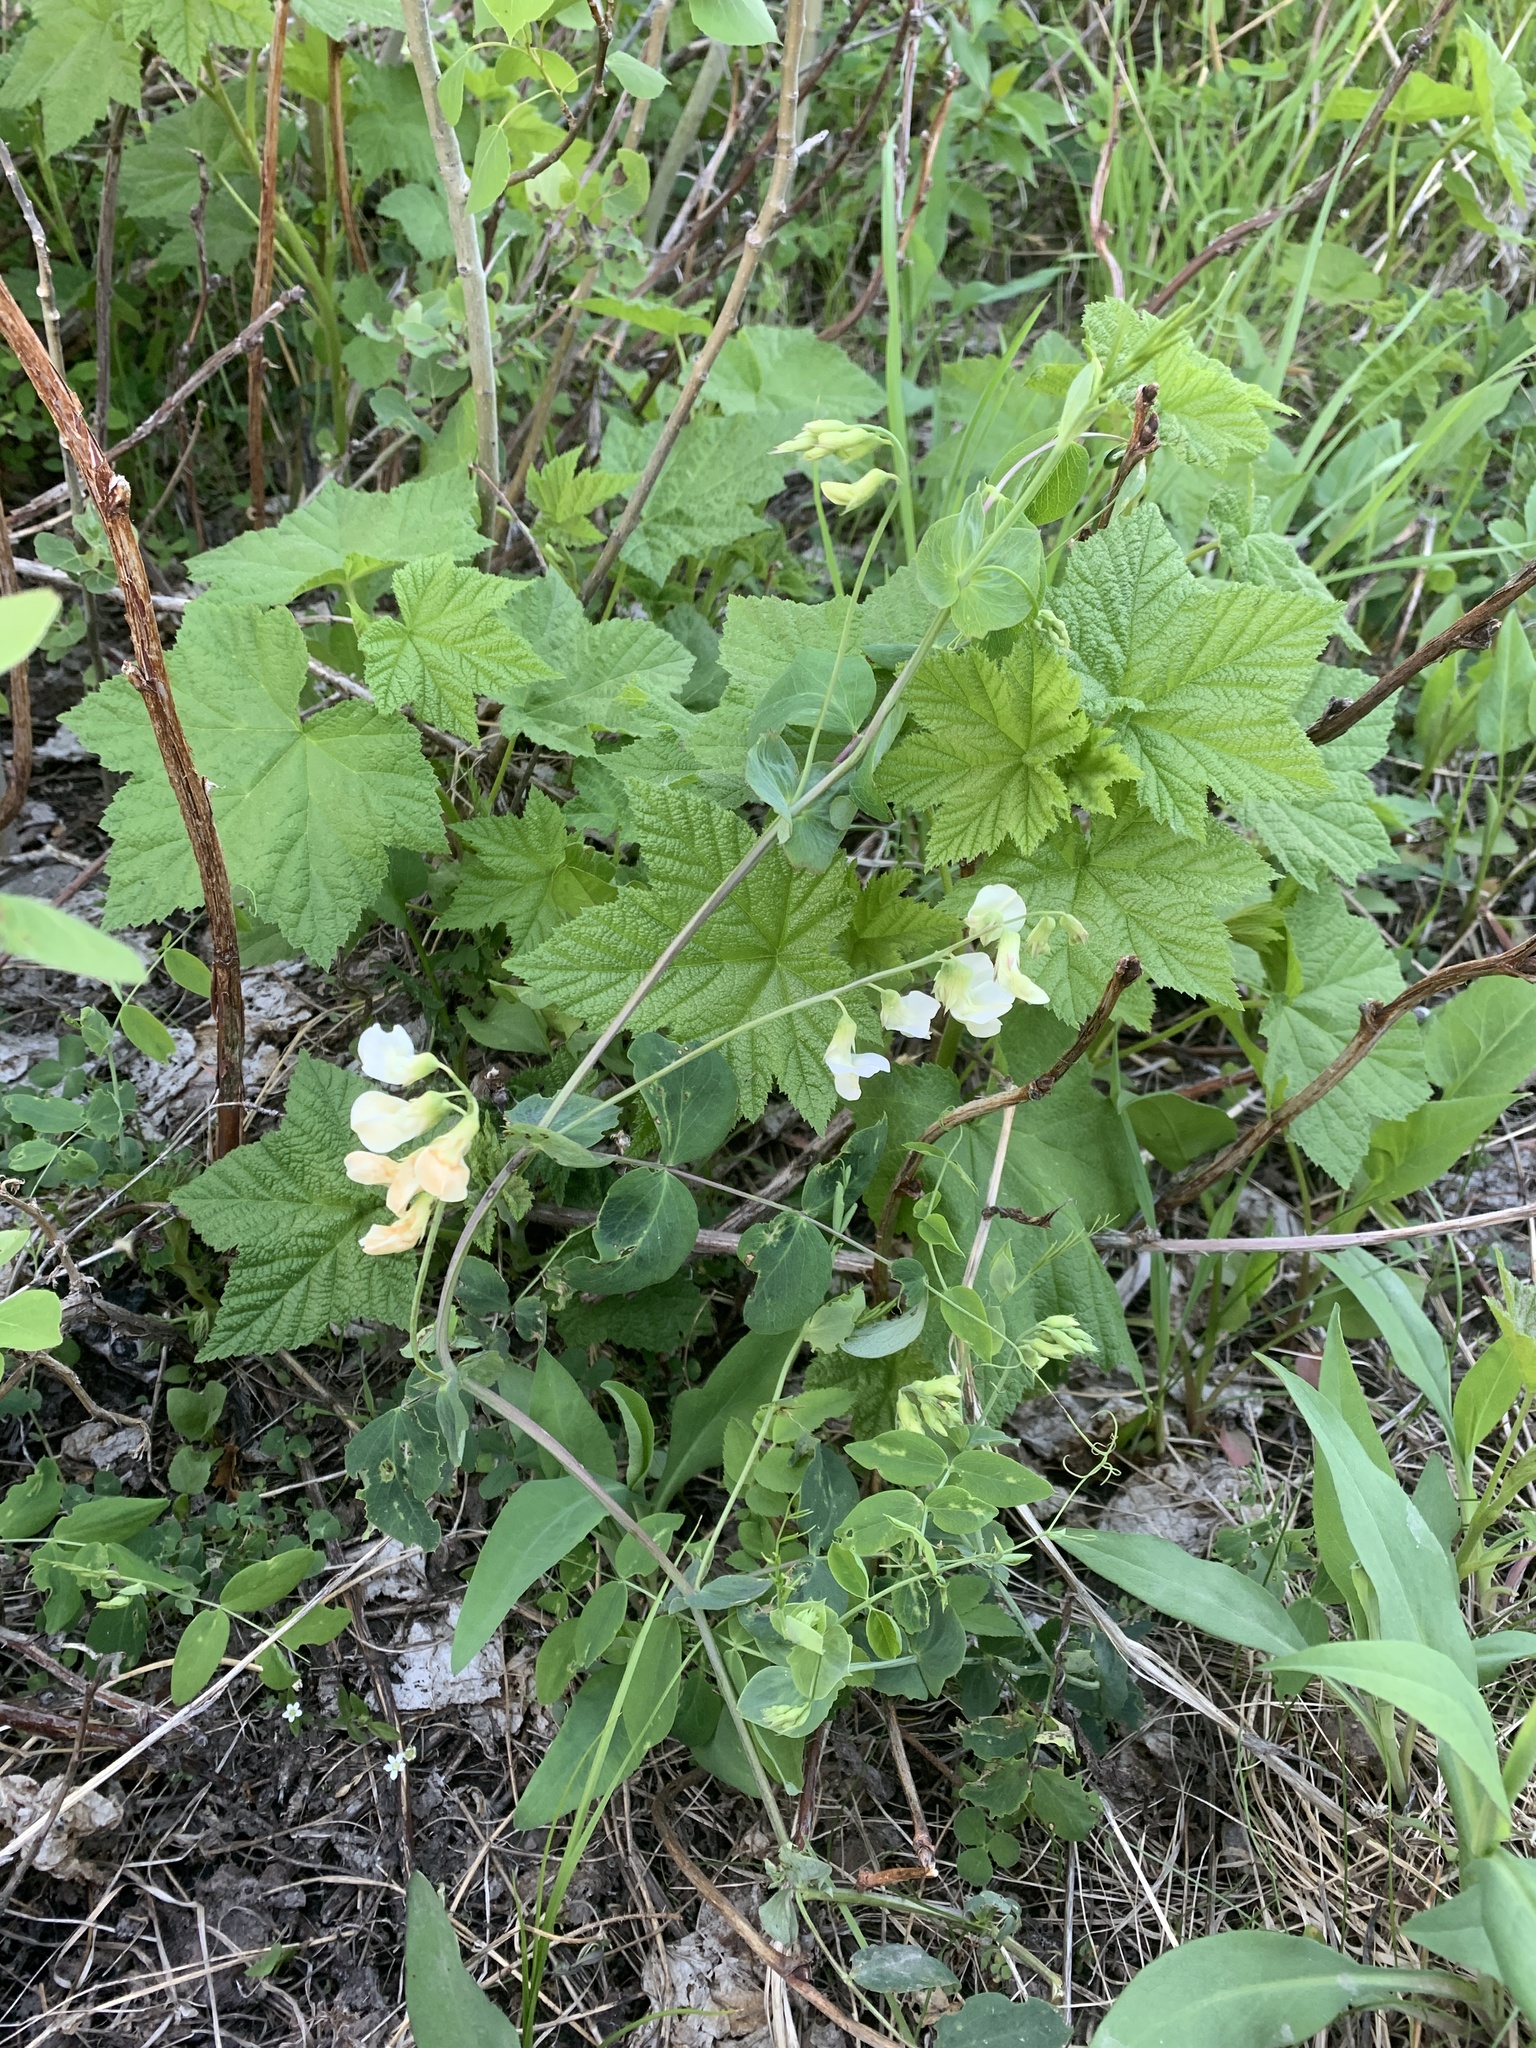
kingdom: Plantae
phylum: Tracheophyta
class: Magnoliopsida
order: Fabales
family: Fabaceae
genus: Lathyrus
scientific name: Lathyrus ochroleucus
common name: Pale vetchling
